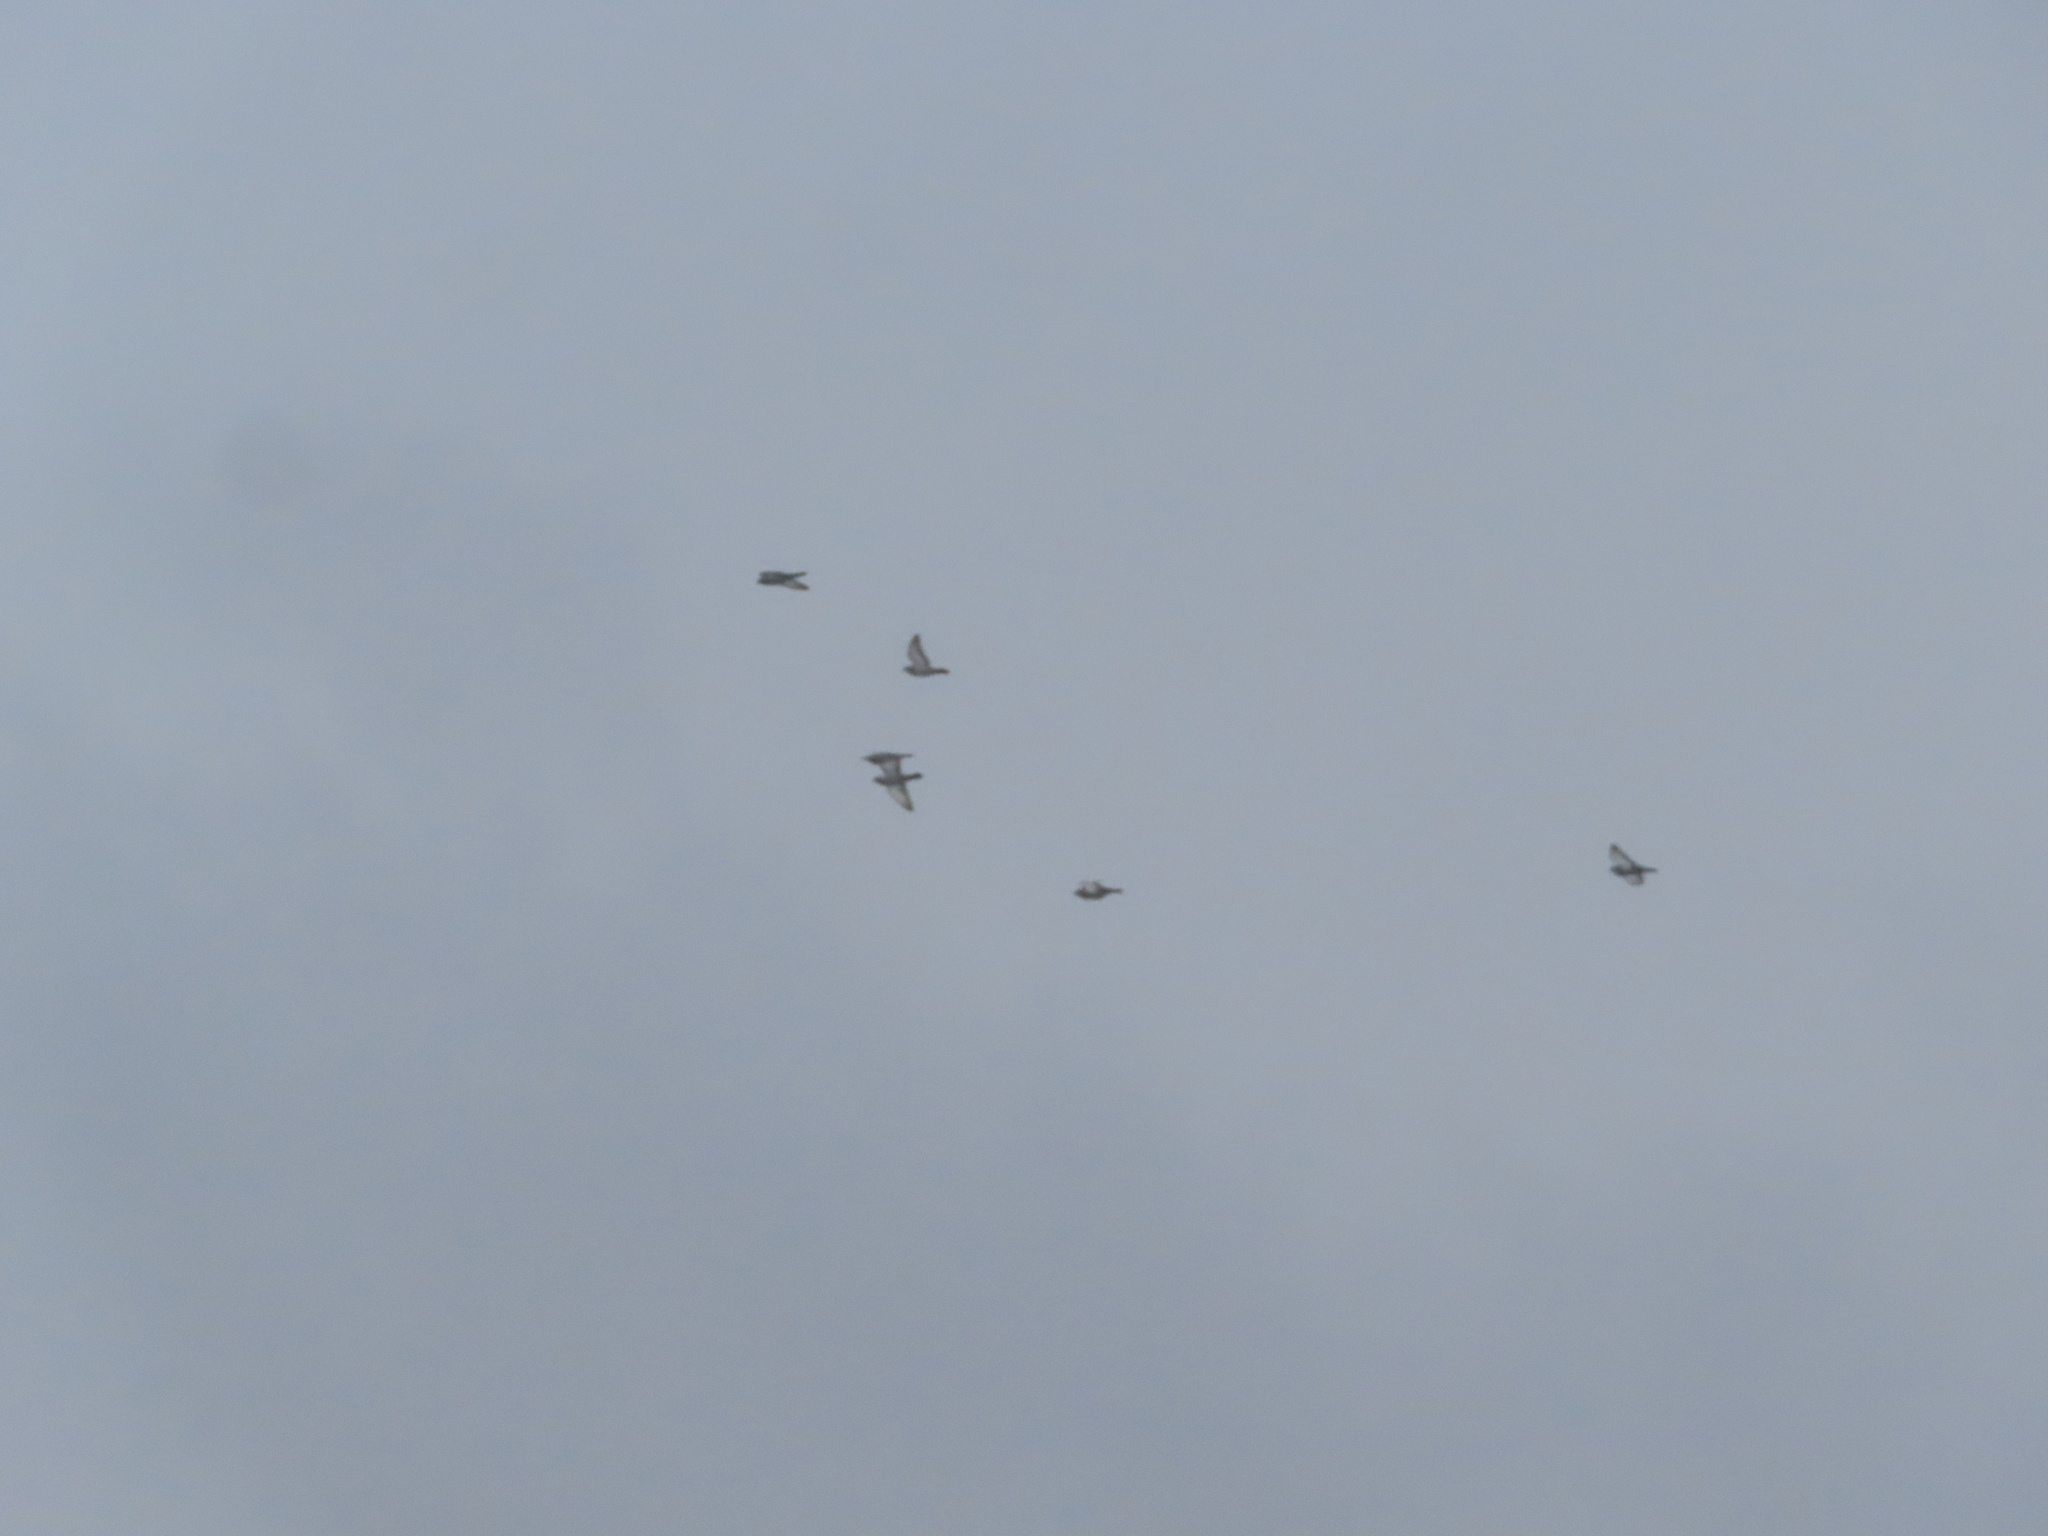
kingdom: Animalia
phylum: Chordata
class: Aves
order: Columbiformes
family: Columbidae
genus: Columba
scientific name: Columba livia
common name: Rock pigeon
